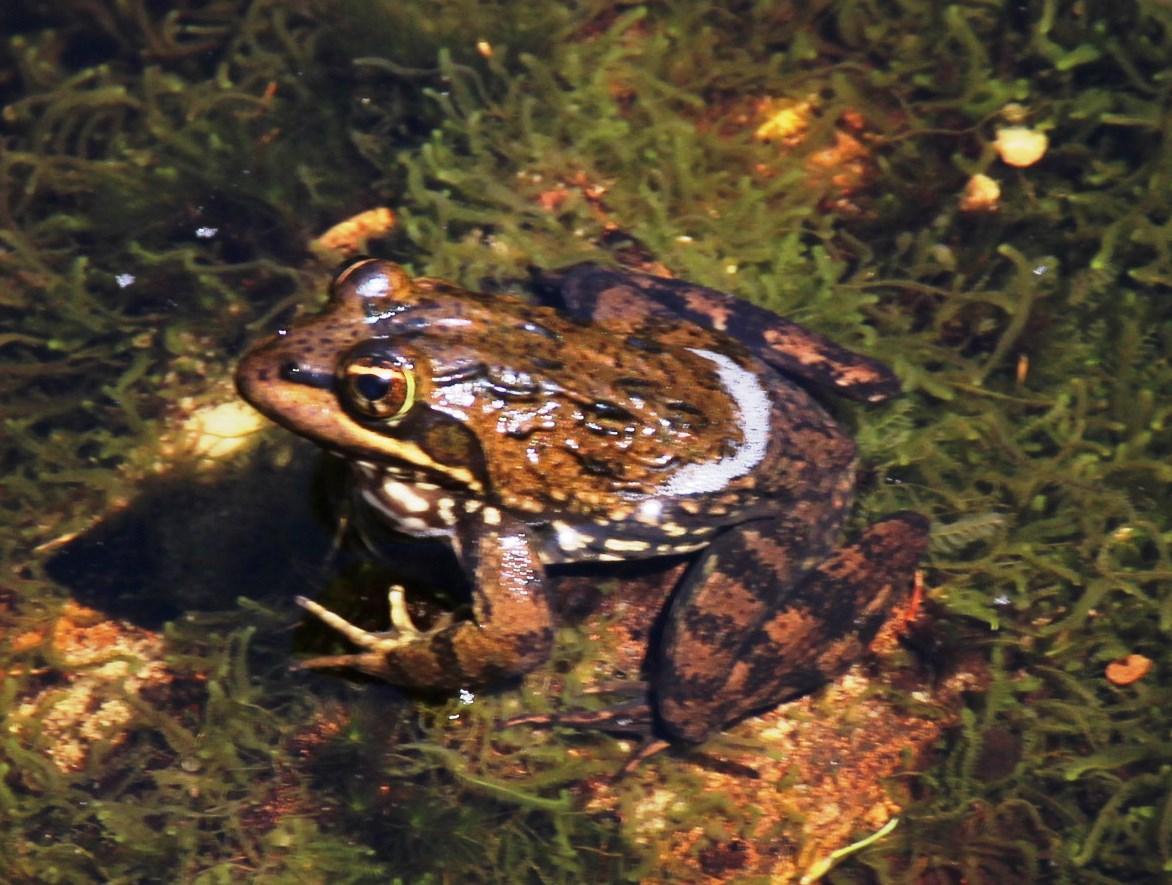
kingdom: Animalia
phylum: Chordata
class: Amphibia
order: Anura
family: Pyxicephalidae
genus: Amietia
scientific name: Amietia fuscigula
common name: Cape rana
